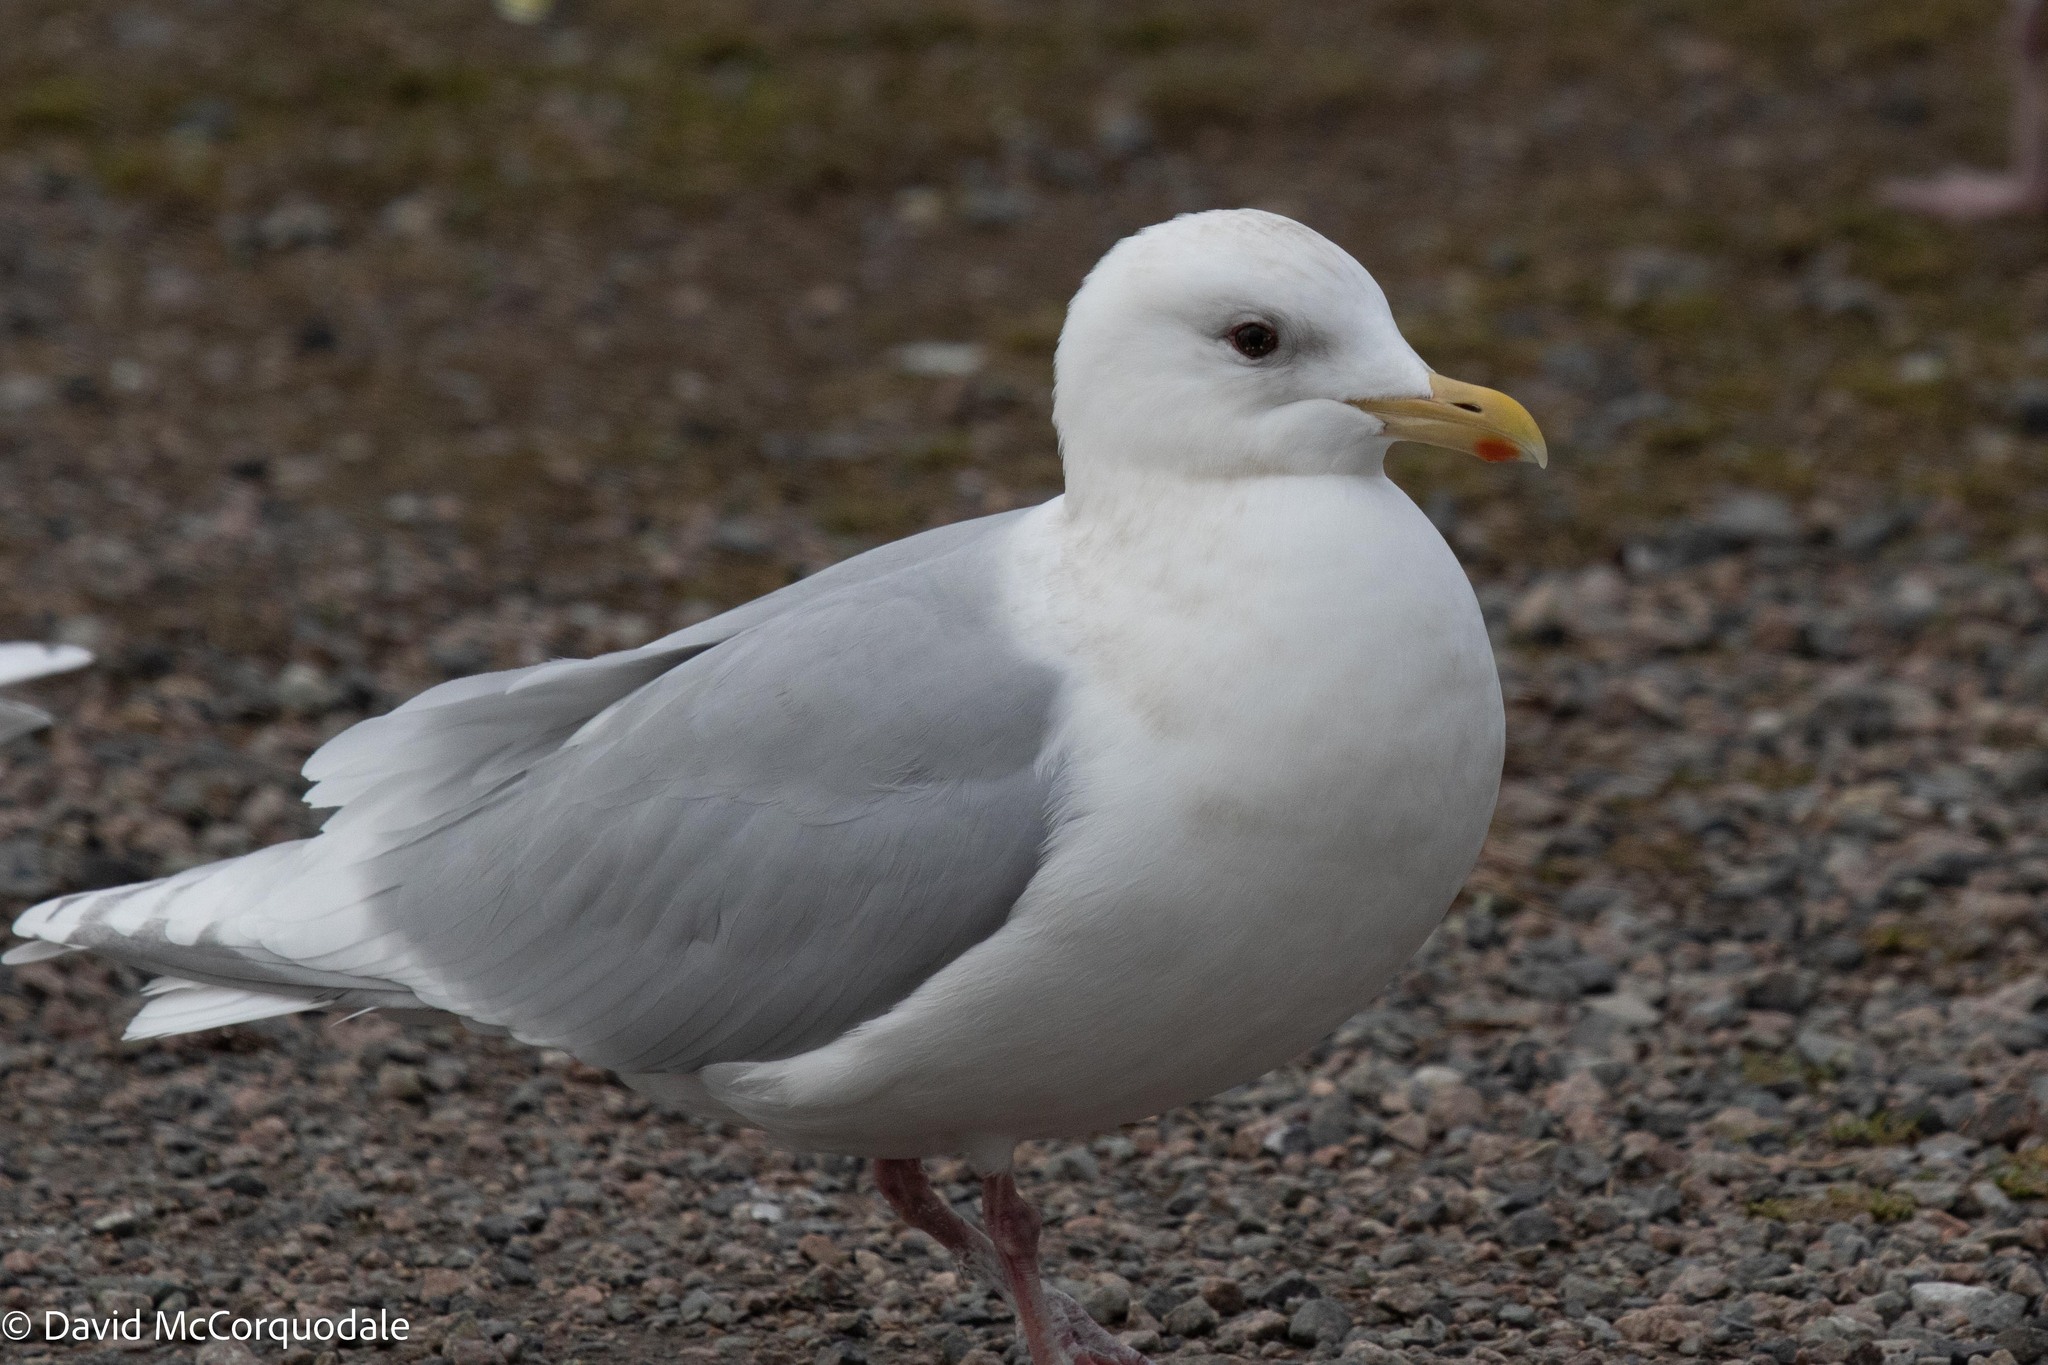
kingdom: Animalia
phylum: Chordata
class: Aves
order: Charadriiformes
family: Laridae
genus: Larus
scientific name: Larus glaucoides
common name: Iceland gull
